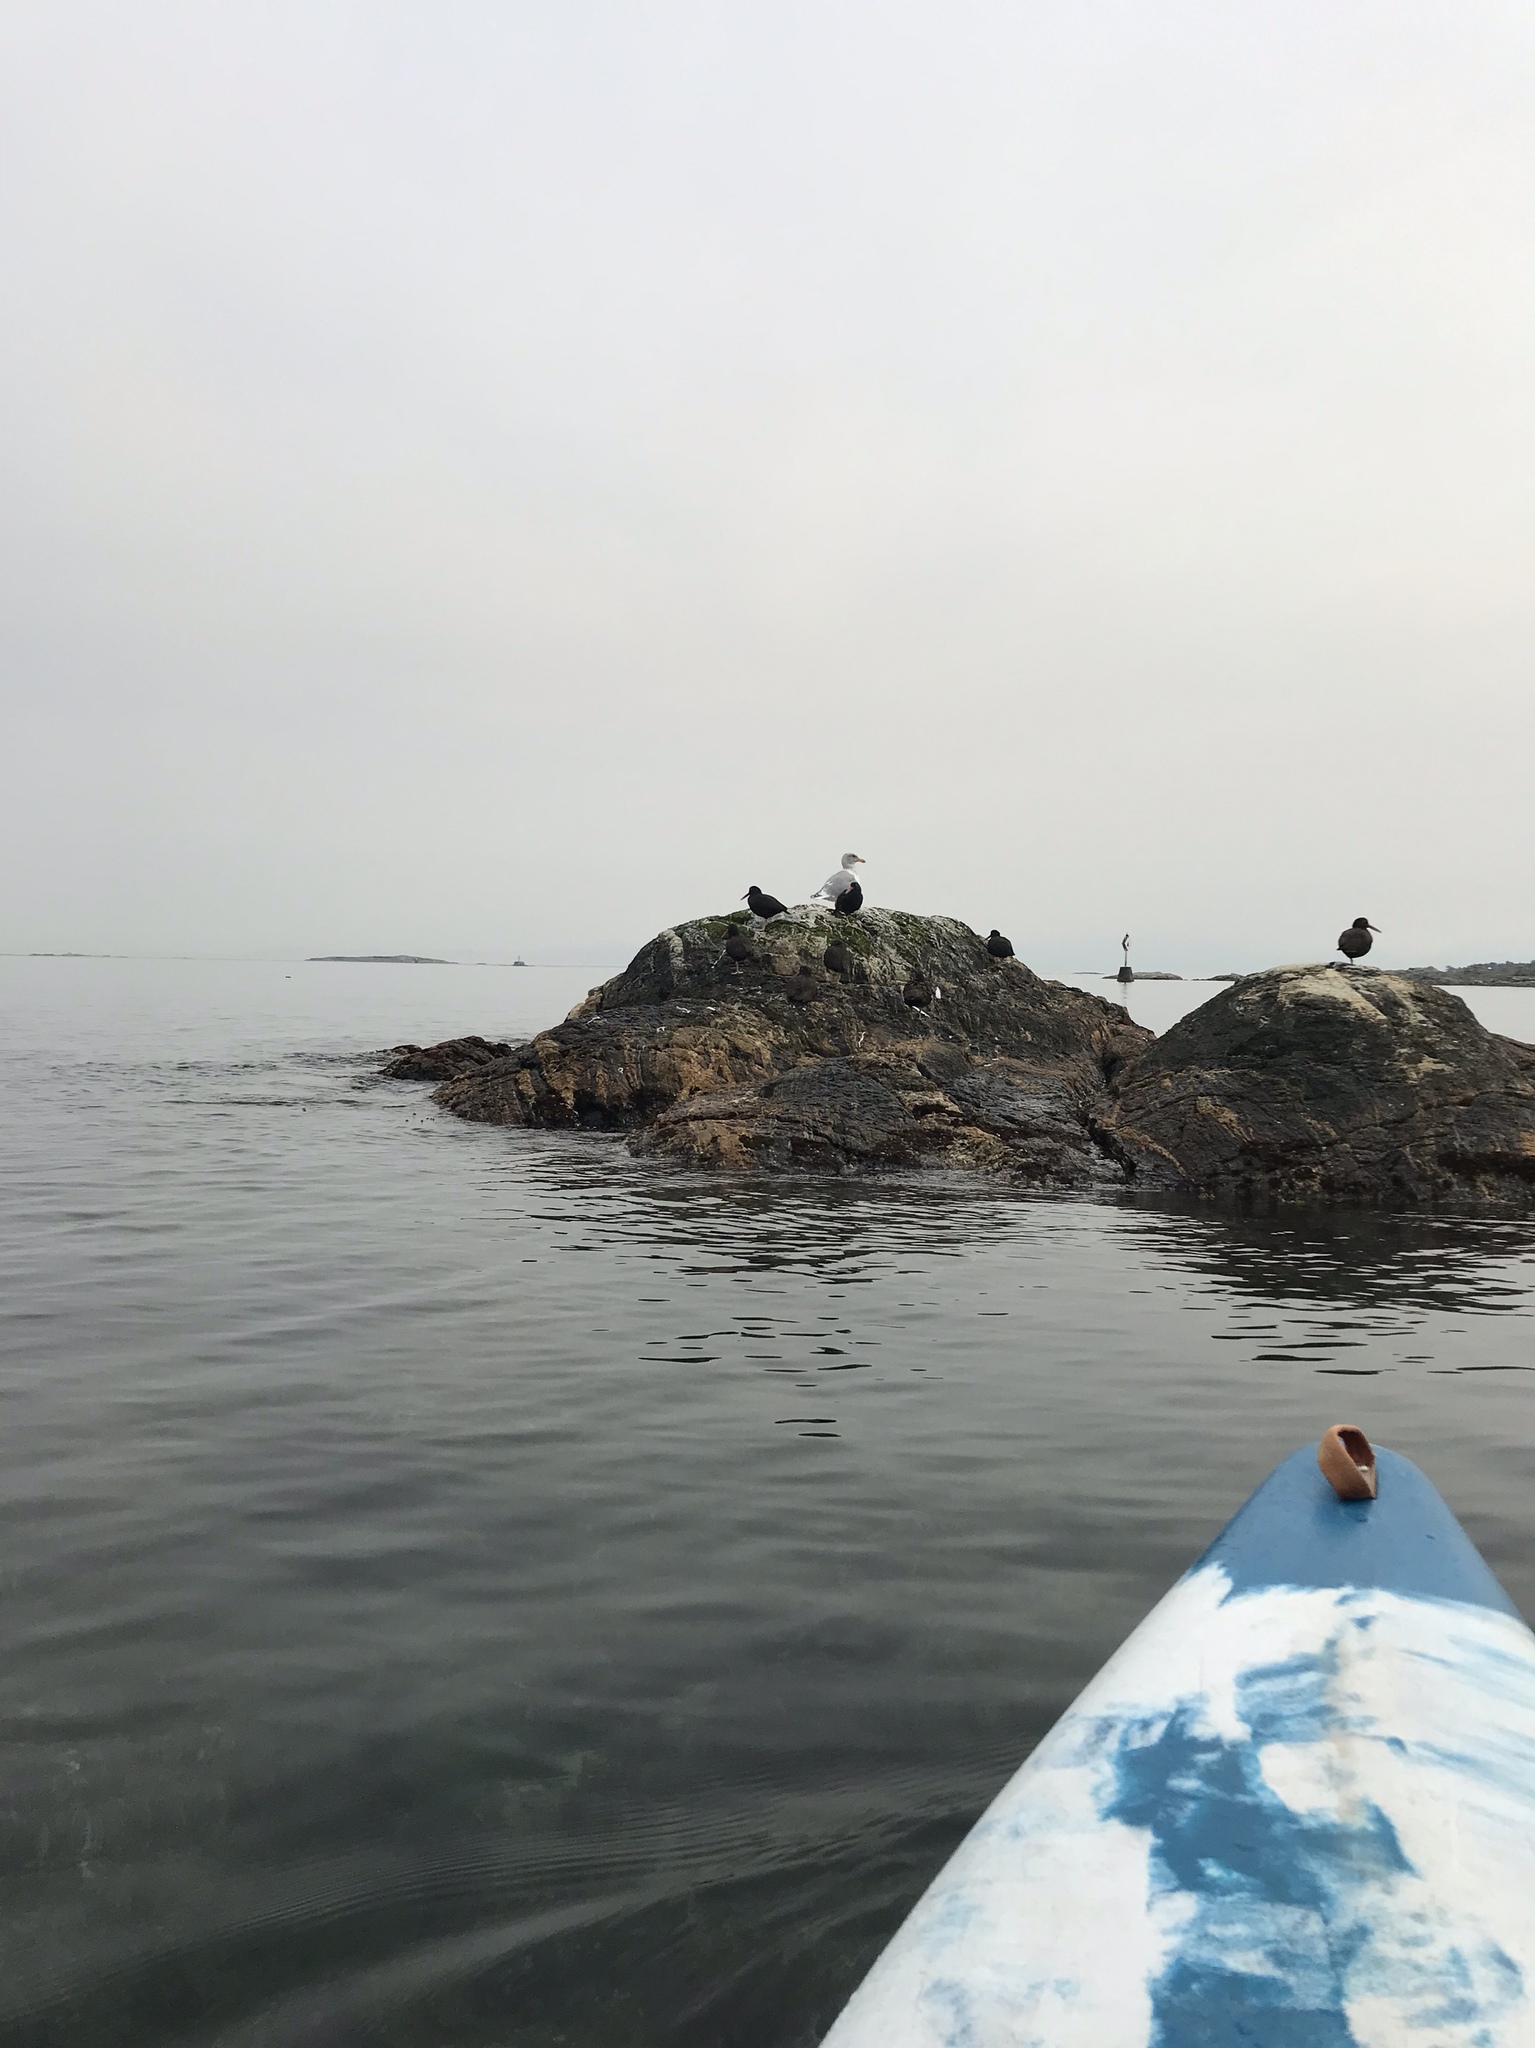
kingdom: Animalia
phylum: Chordata
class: Aves
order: Charadriiformes
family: Haematopodidae
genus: Haematopus
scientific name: Haematopus bachmani
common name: Black oystercatcher
